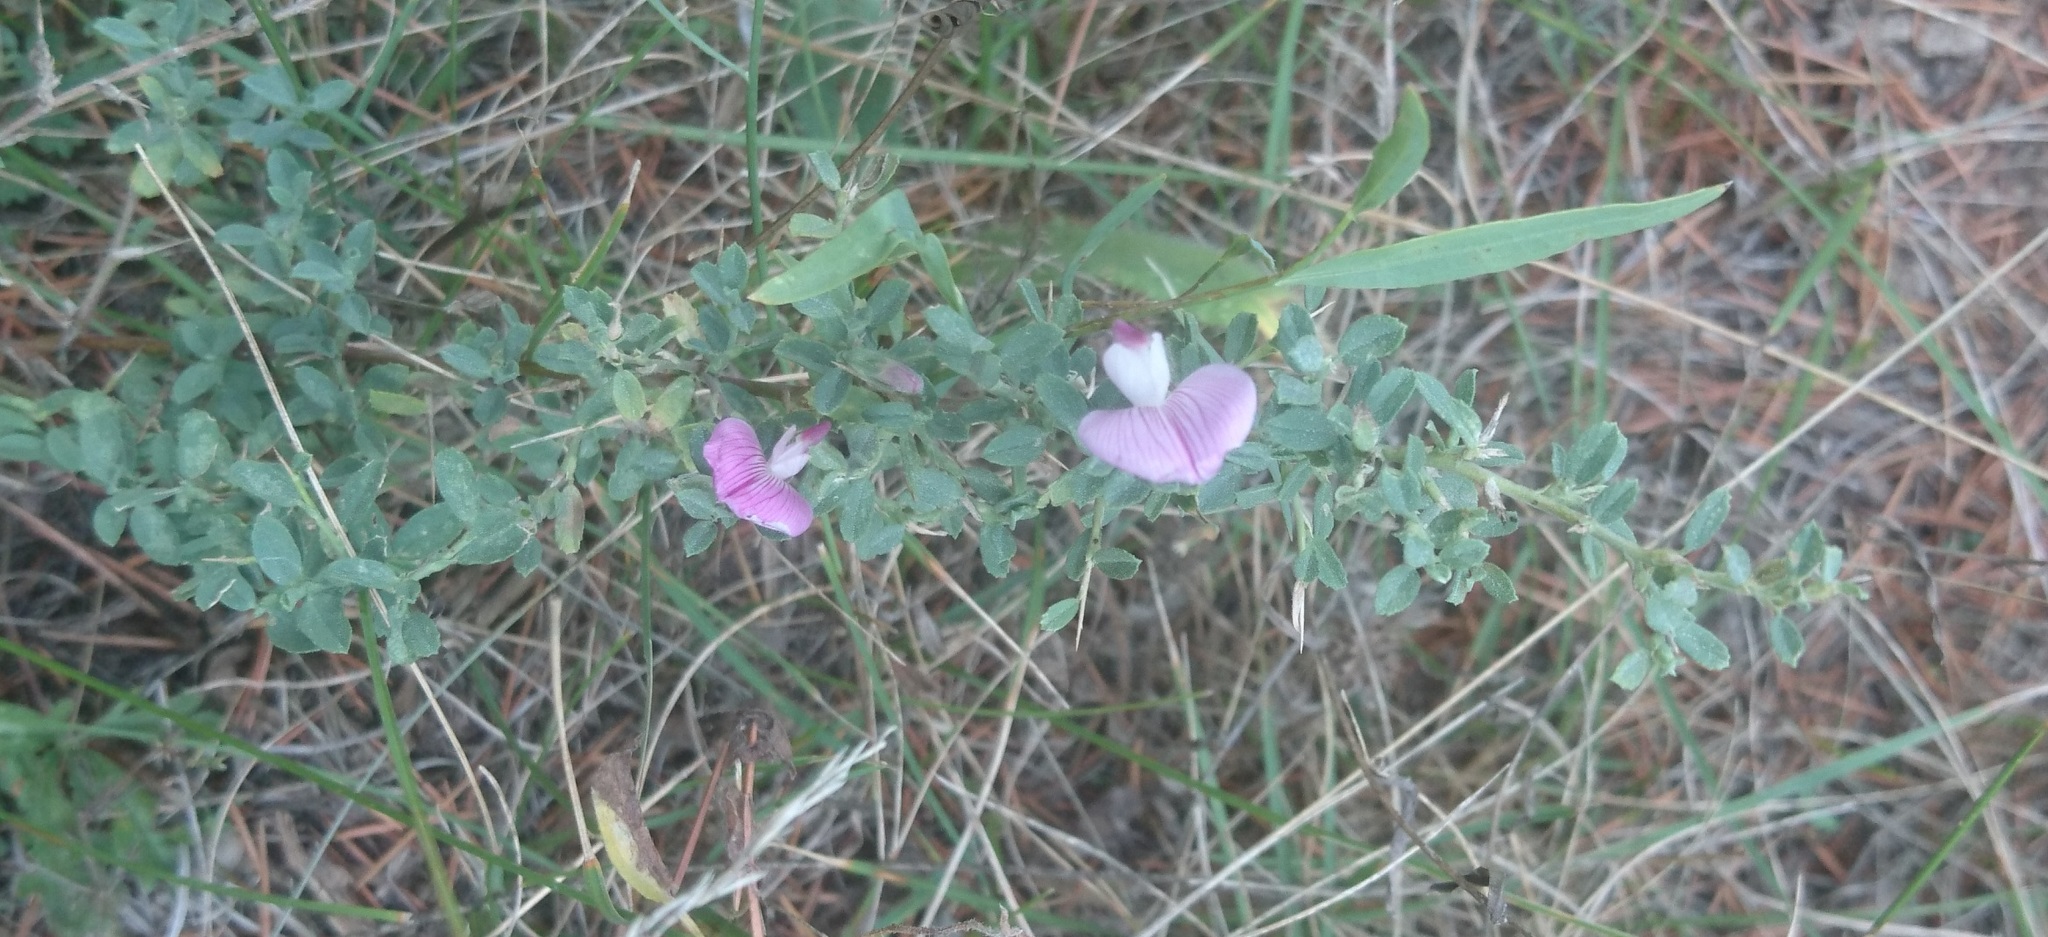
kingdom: Plantae
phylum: Tracheophyta
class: Magnoliopsida
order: Fabales
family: Fabaceae
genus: Ononis
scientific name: Ononis spinosa
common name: Spiny restharrow
